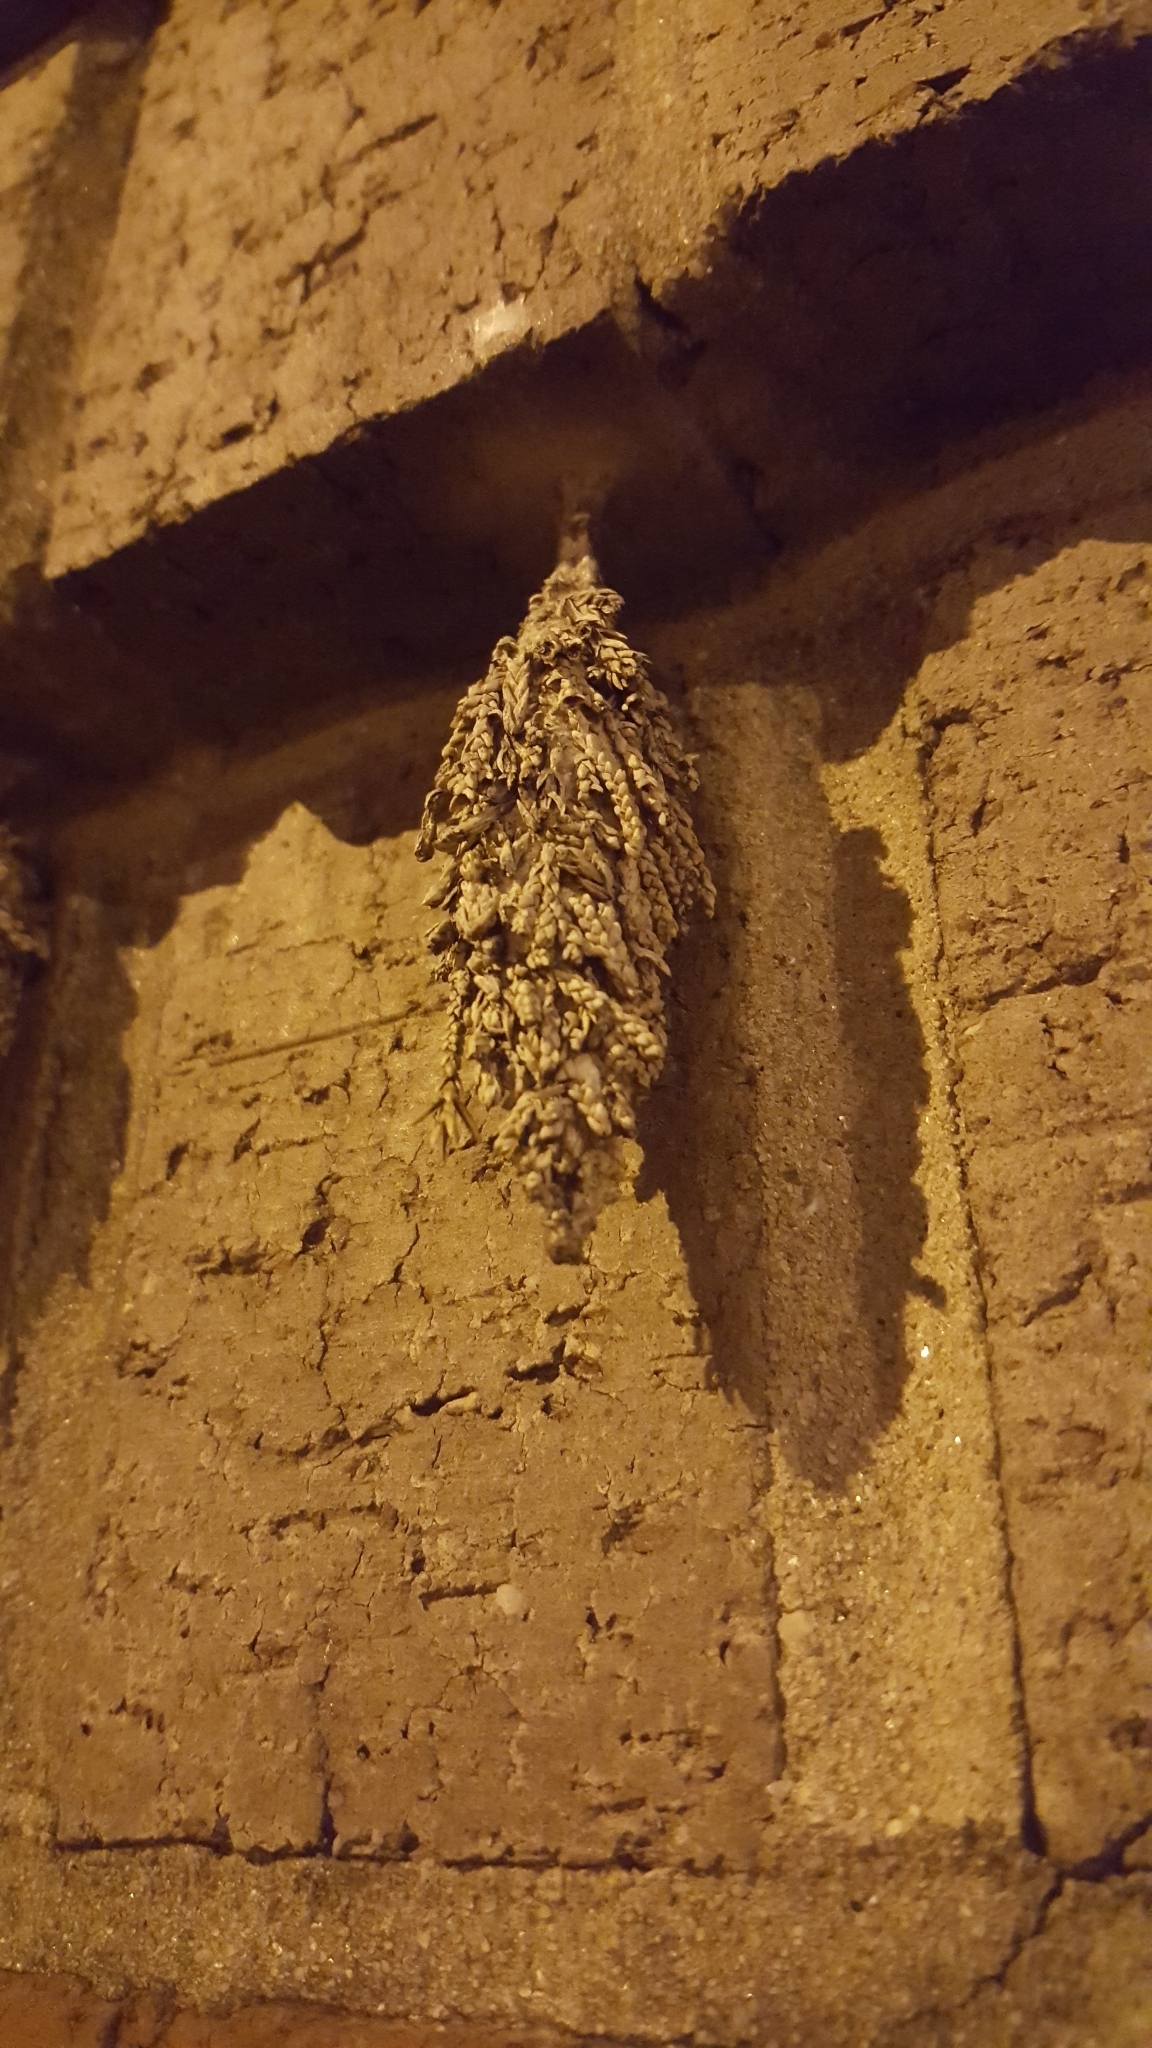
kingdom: Animalia
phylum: Arthropoda
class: Insecta
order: Lepidoptera
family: Psychidae
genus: Thyridopteryx
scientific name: Thyridopteryx ephemeraeformis
